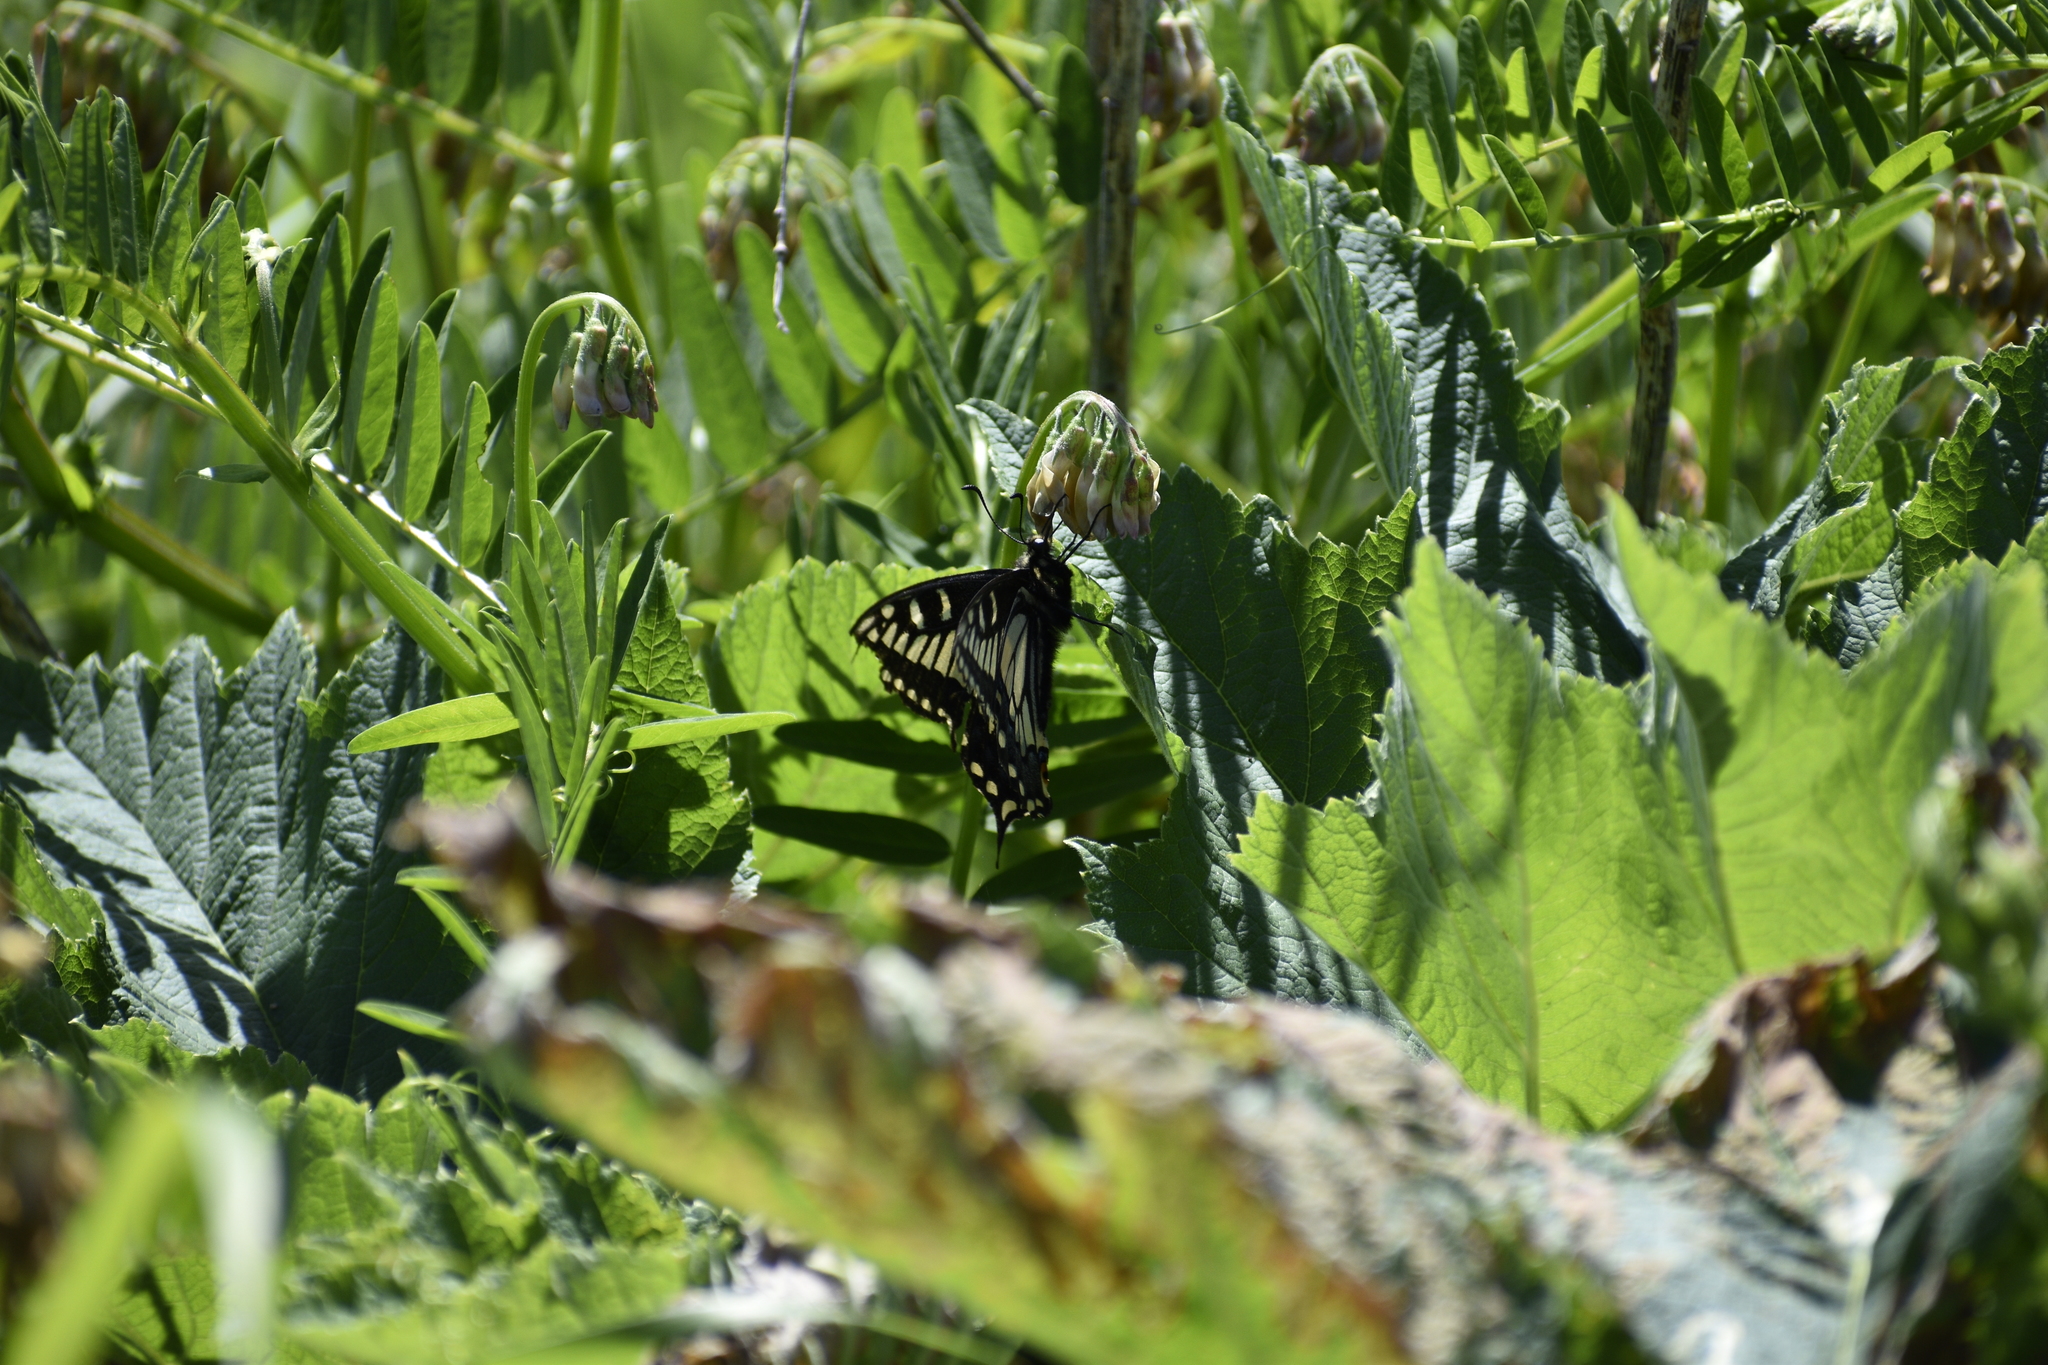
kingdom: Animalia
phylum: Arthropoda
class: Insecta
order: Lepidoptera
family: Papilionidae
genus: Papilio
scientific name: Papilio zelicaon
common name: Anise swallowtail
